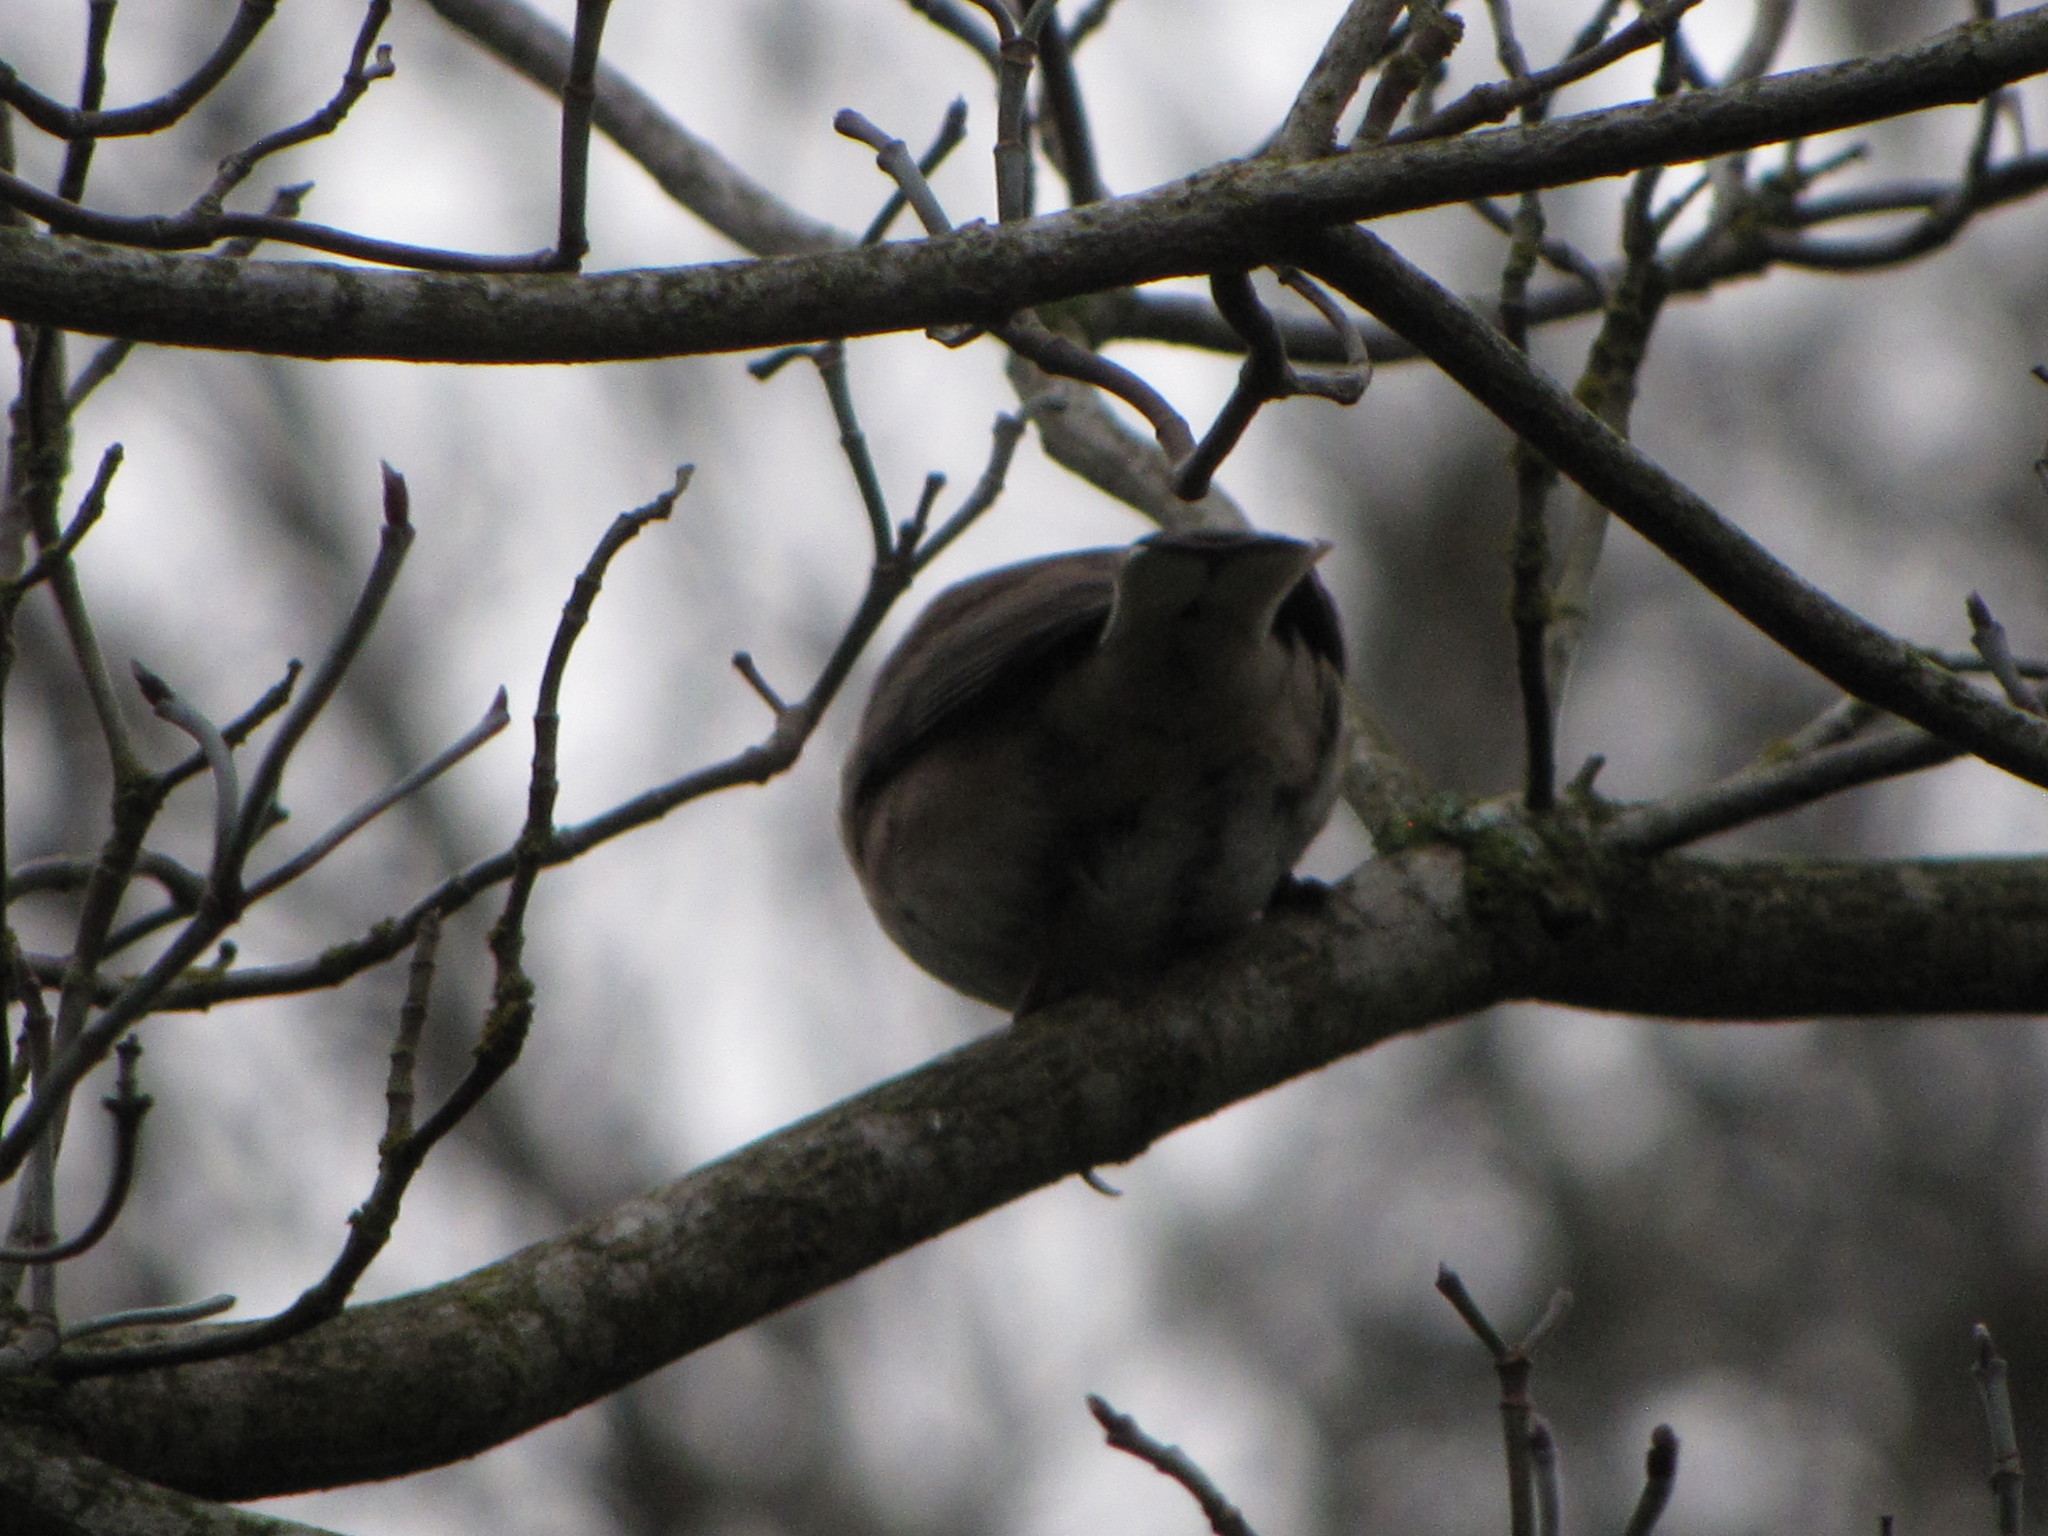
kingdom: Animalia
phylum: Chordata
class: Aves
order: Passeriformes
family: Passerellidae
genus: Junco
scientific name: Junco hyemalis
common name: Dark-eyed junco
